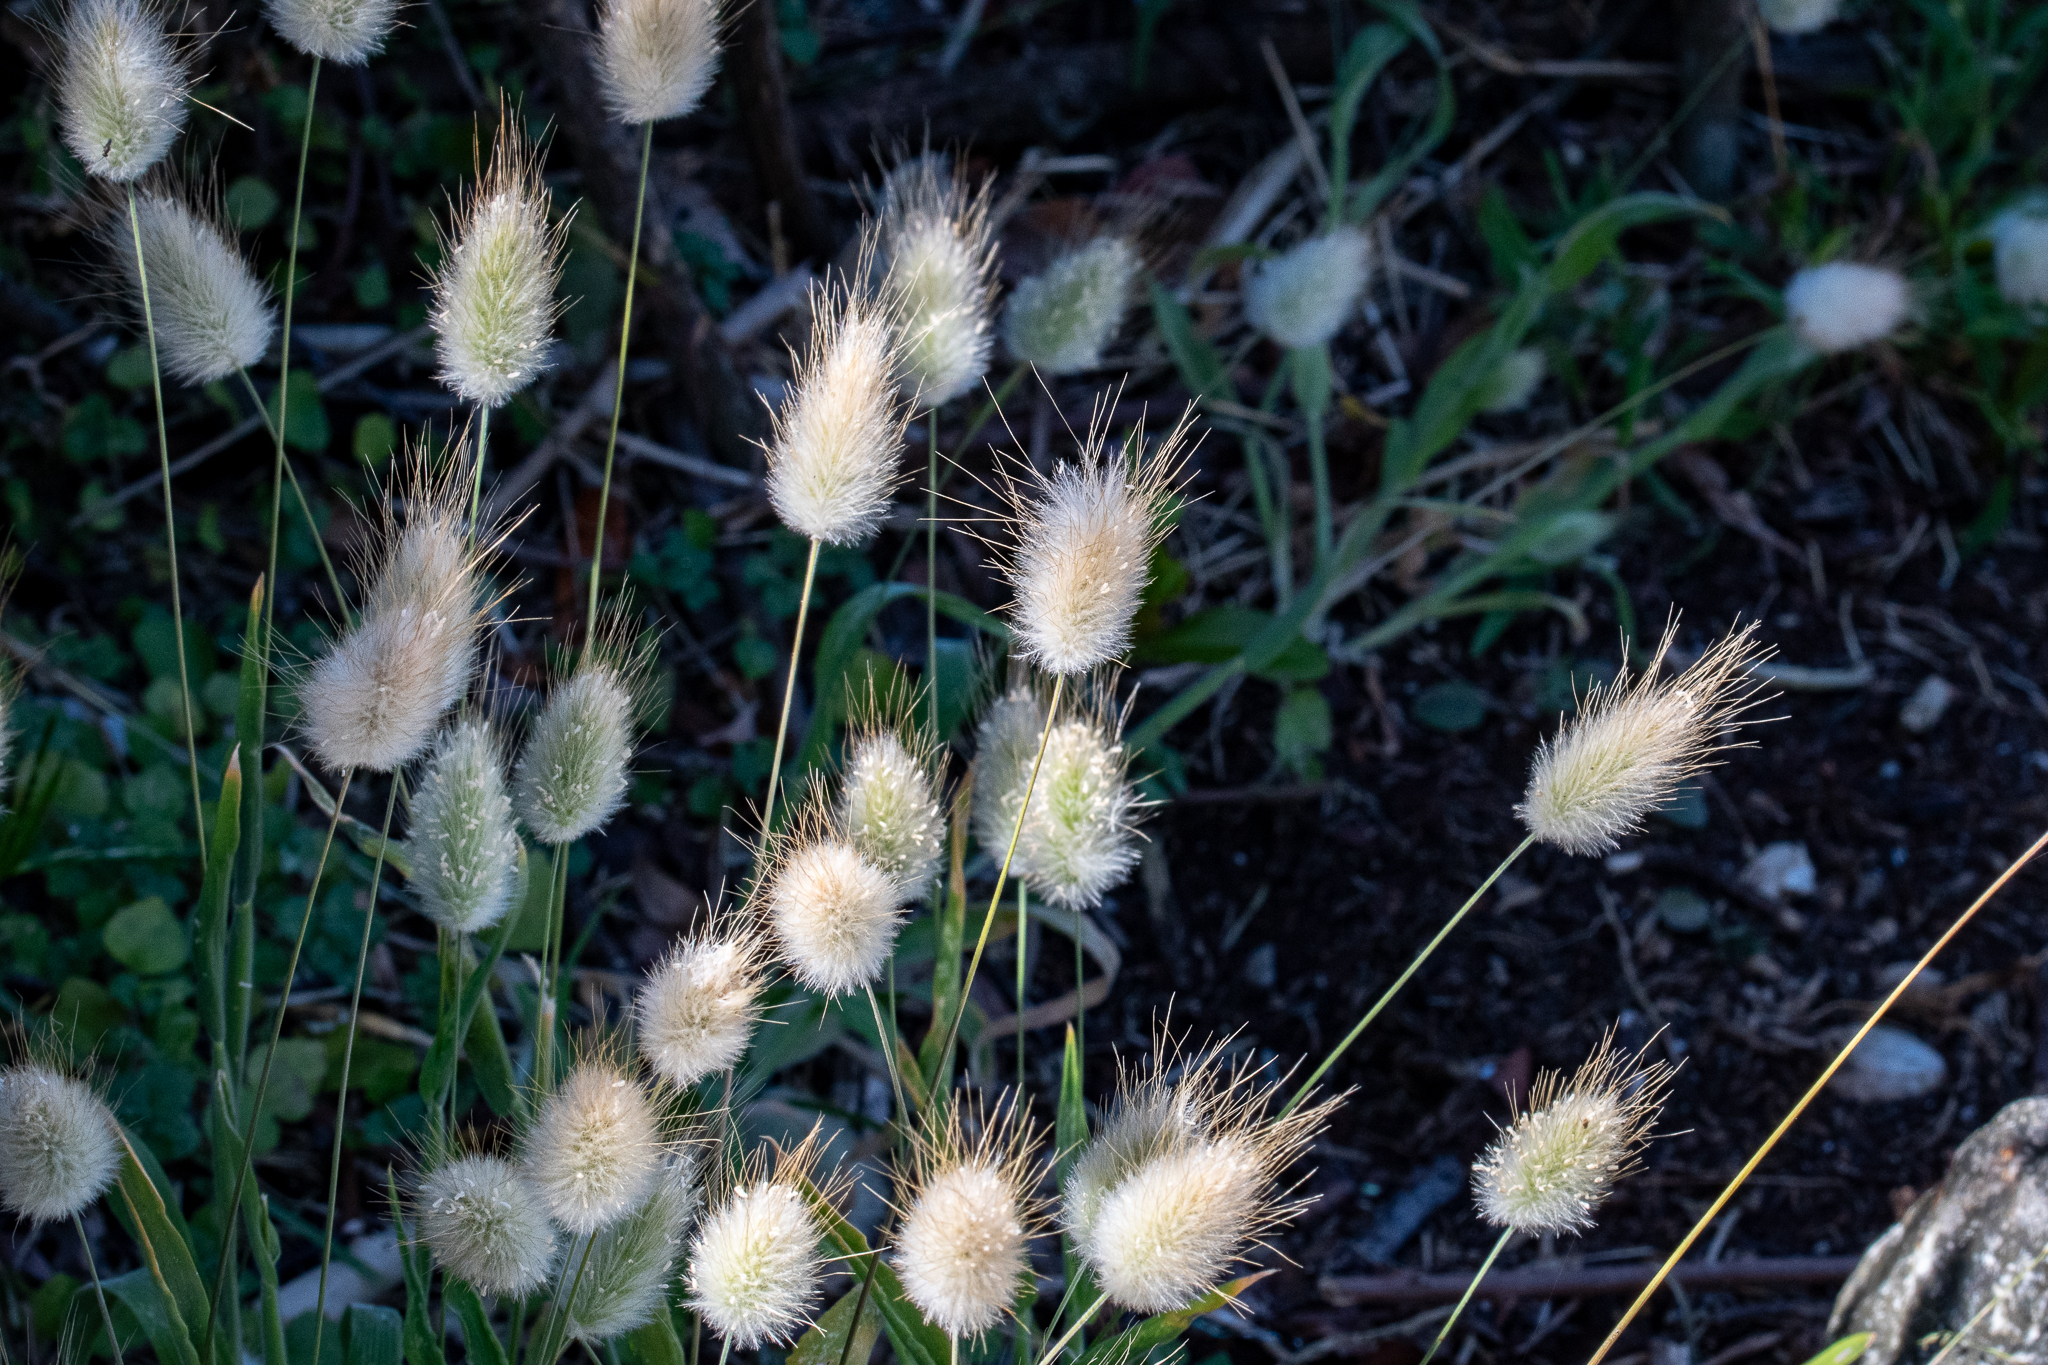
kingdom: Plantae
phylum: Tracheophyta
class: Liliopsida
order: Poales
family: Poaceae
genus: Lagurus
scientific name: Lagurus ovatus
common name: Hare's-tail
